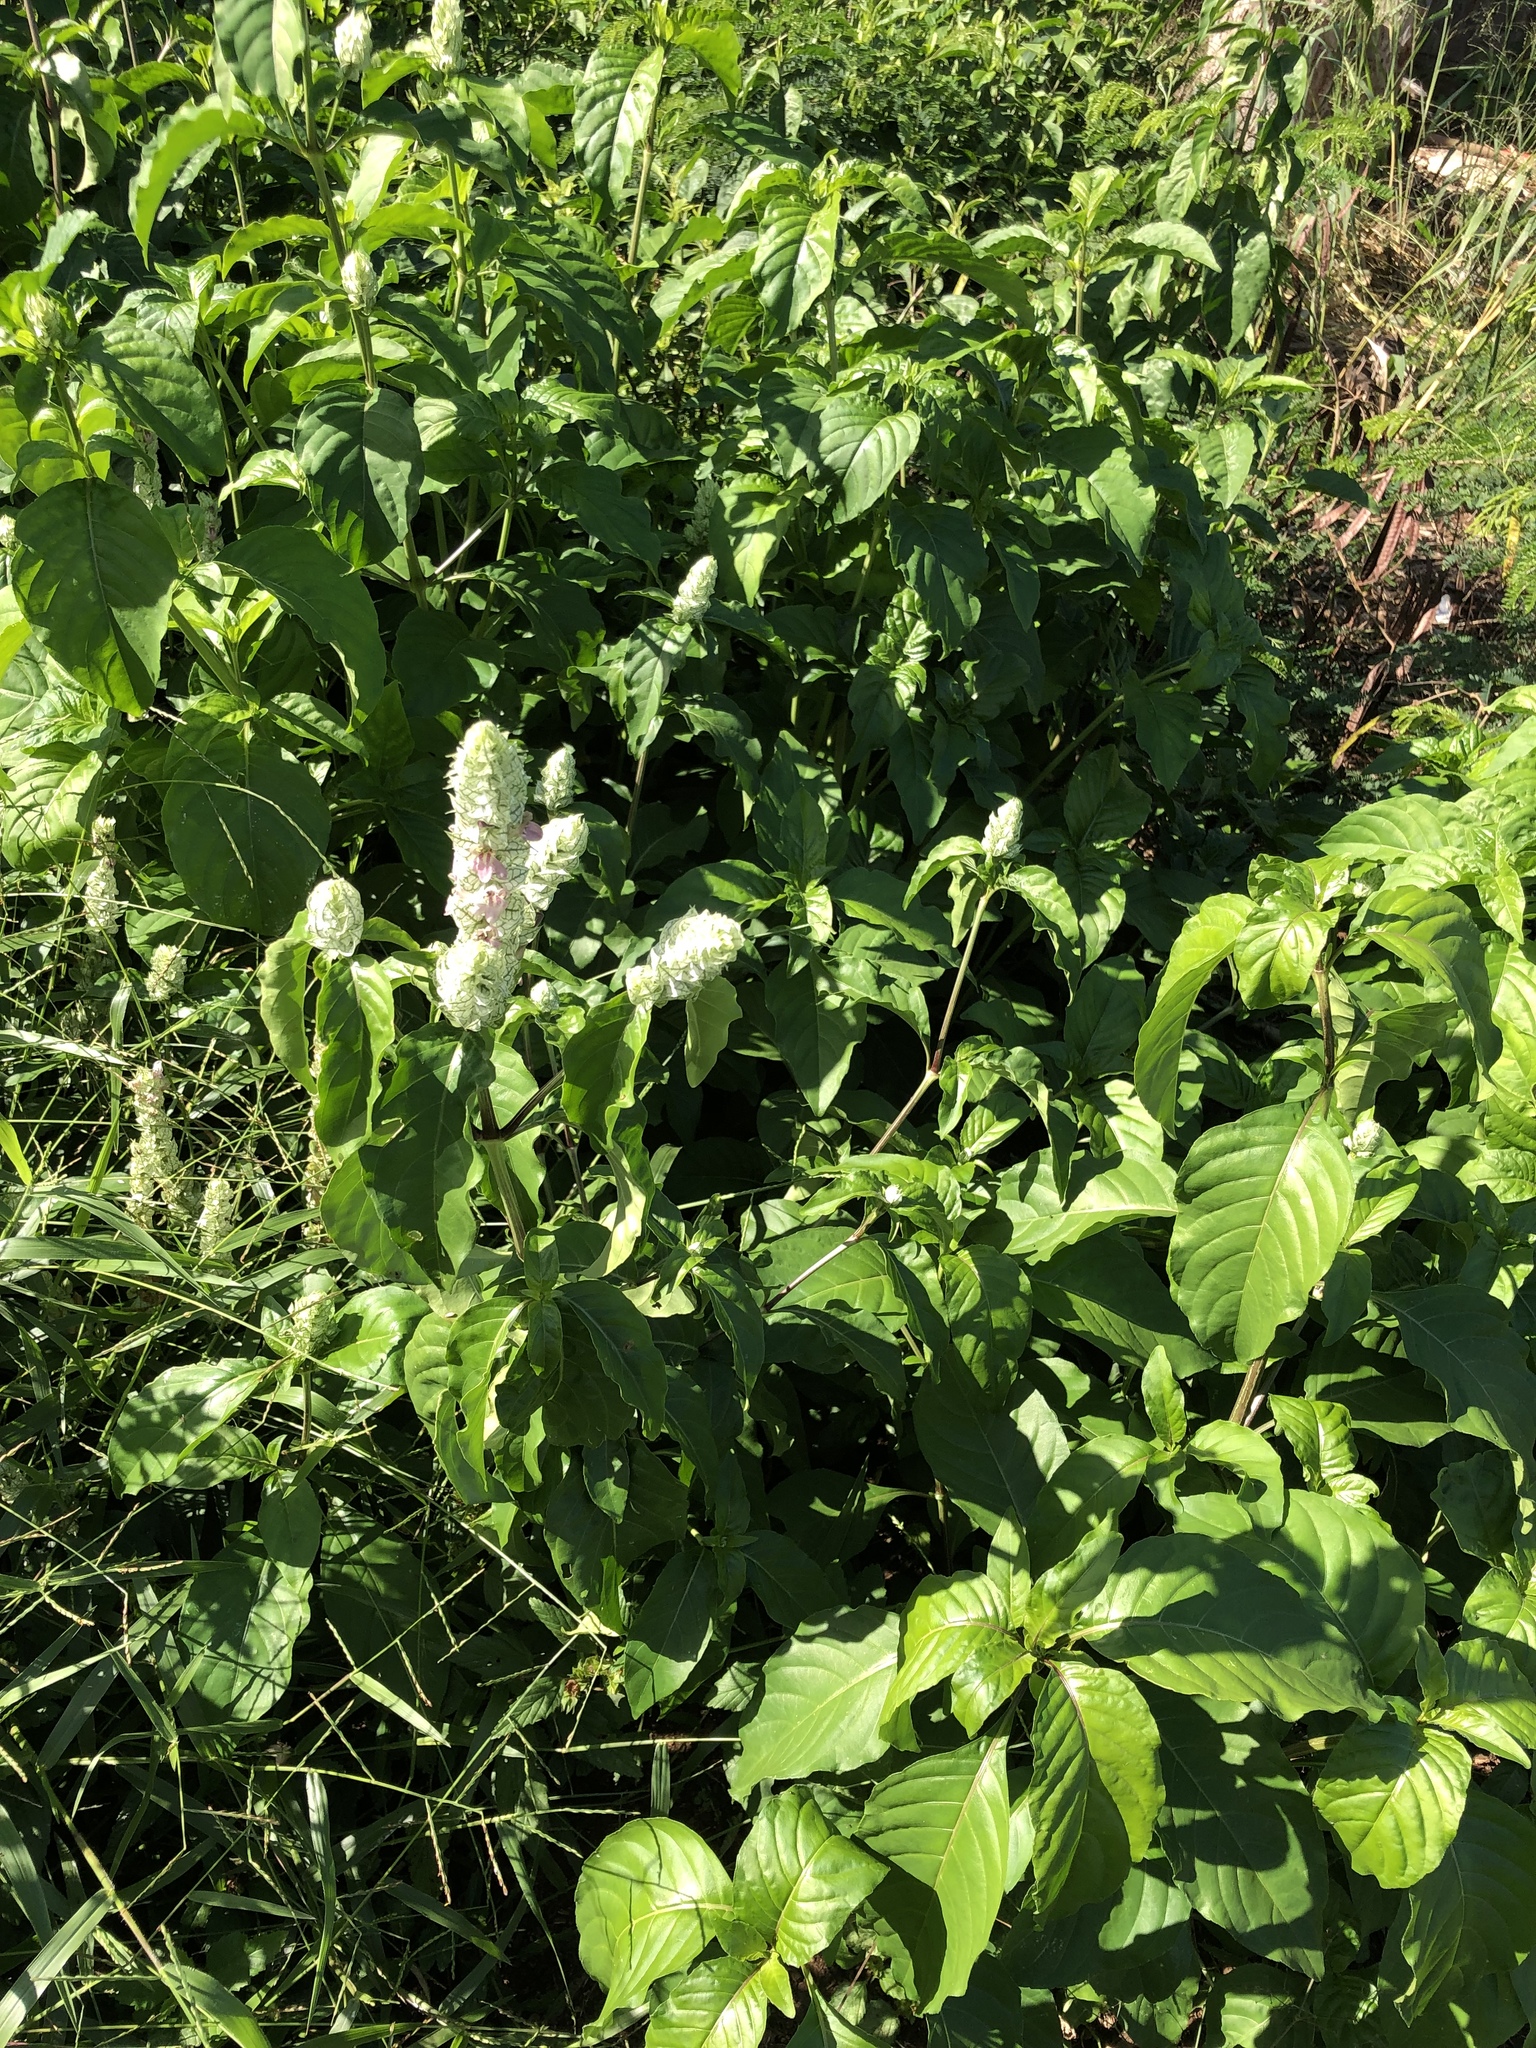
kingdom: Plantae
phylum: Tracheophyta
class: Magnoliopsida
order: Lamiales
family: Acanthaceae
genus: Justicia
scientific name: Justicia betonica
